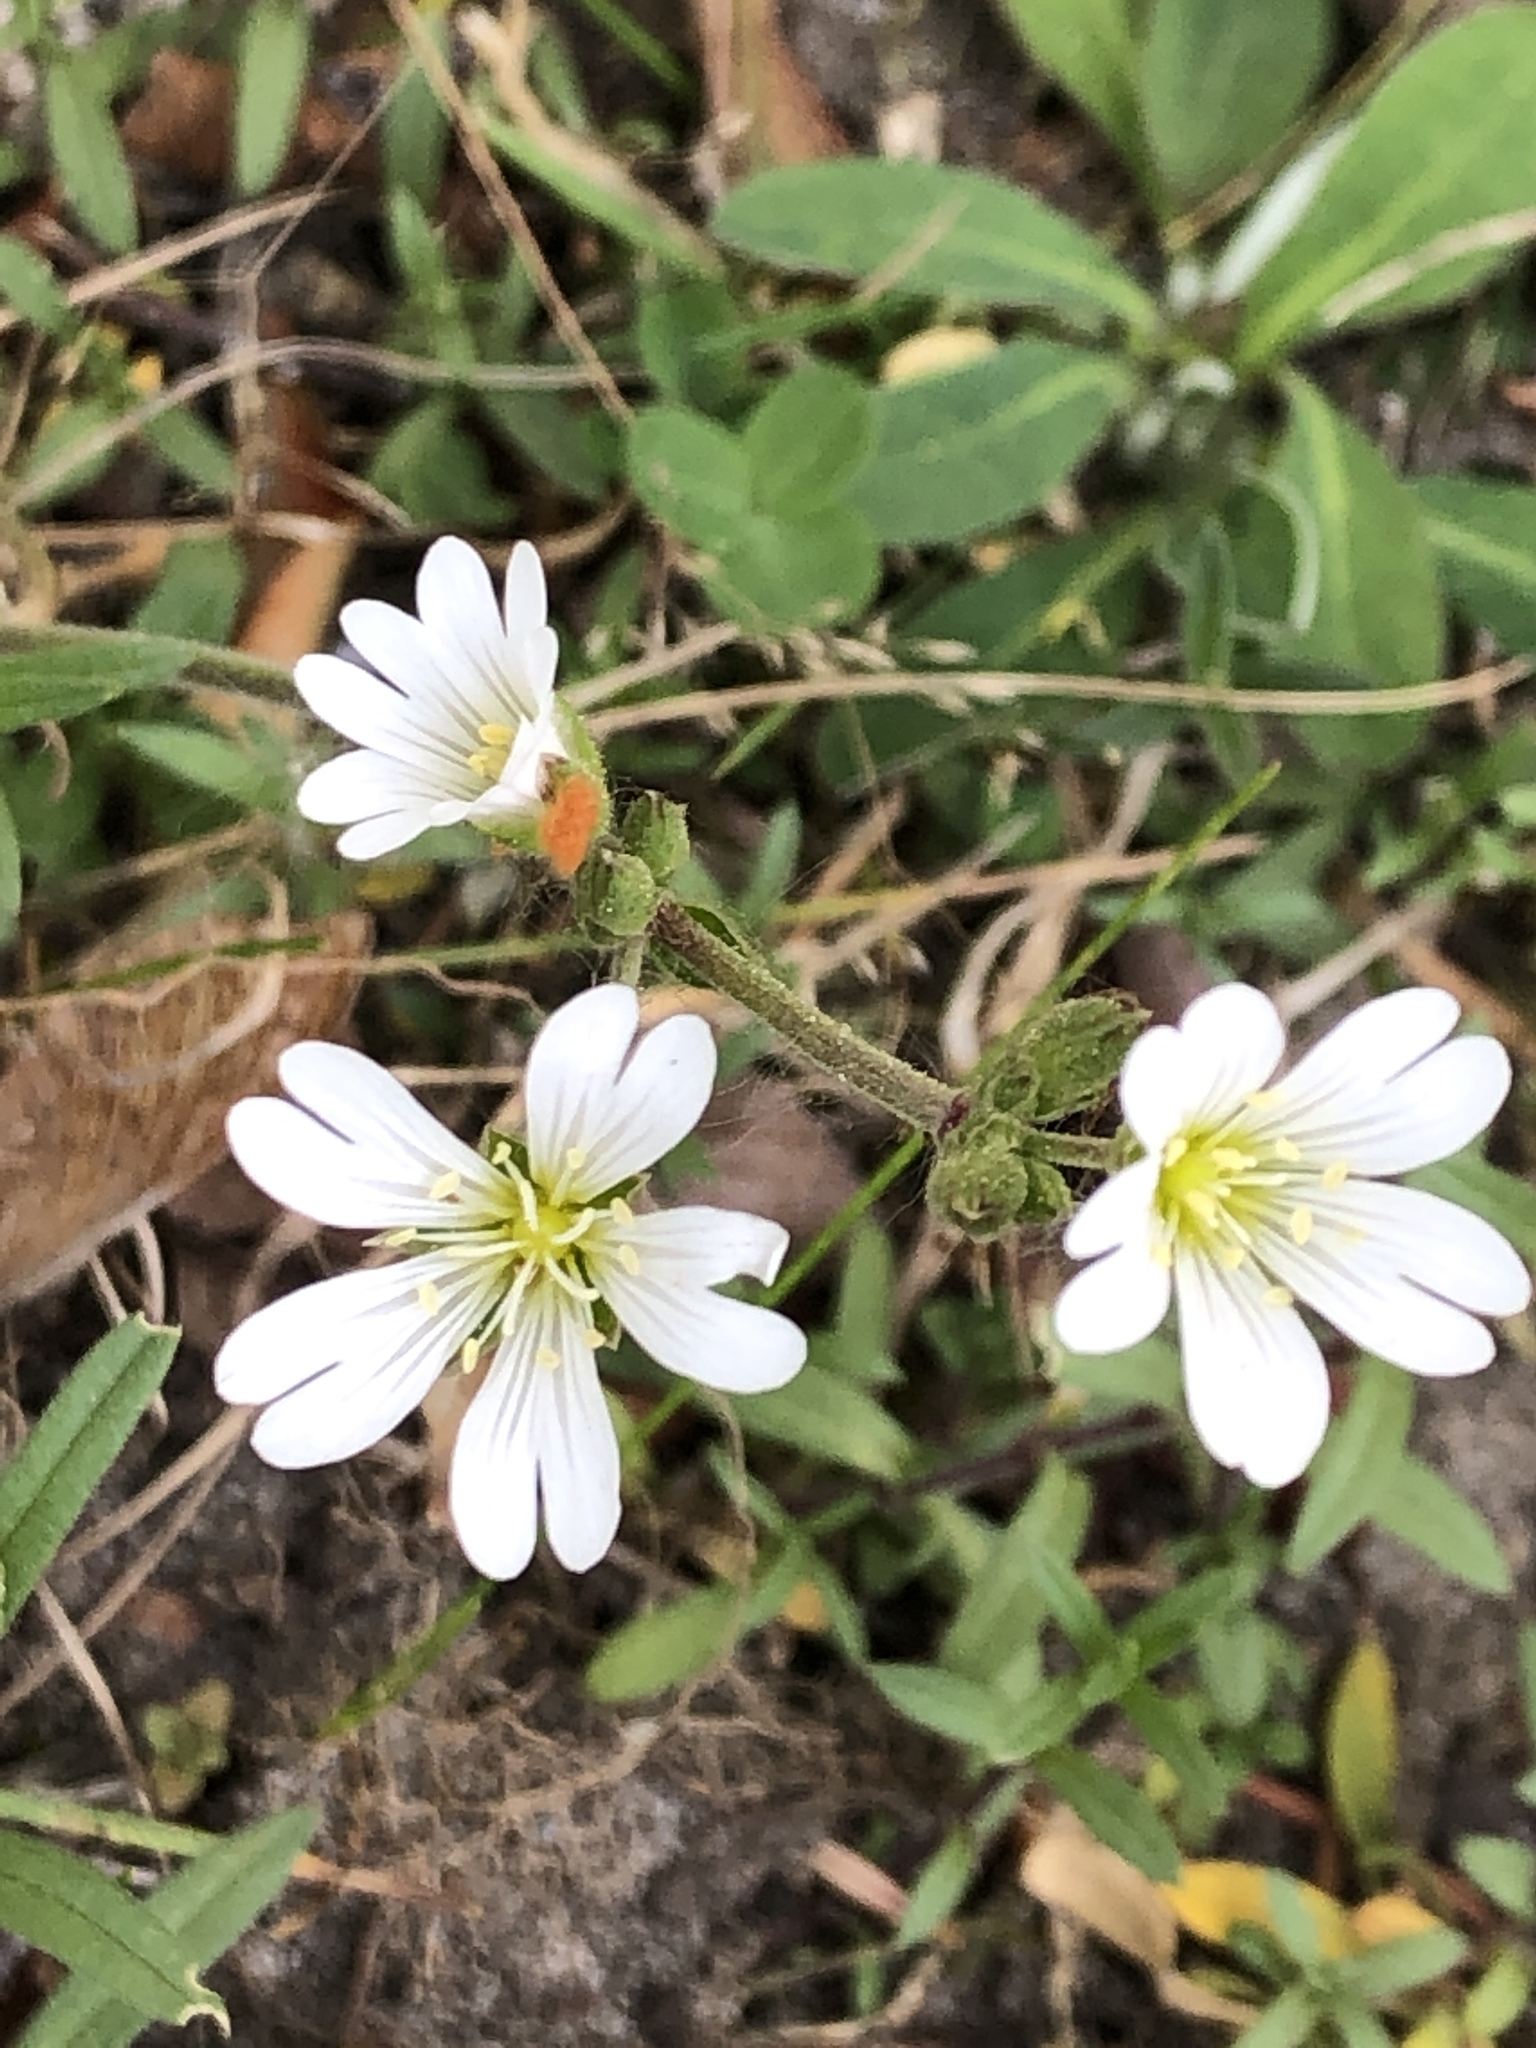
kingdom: Plantae
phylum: Tracheophyta
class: Magnoliopsida
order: Caryophyllales
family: Caryophyllaceae
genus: Cerastium
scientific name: Cerastium arvense
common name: Field mouse-ear
